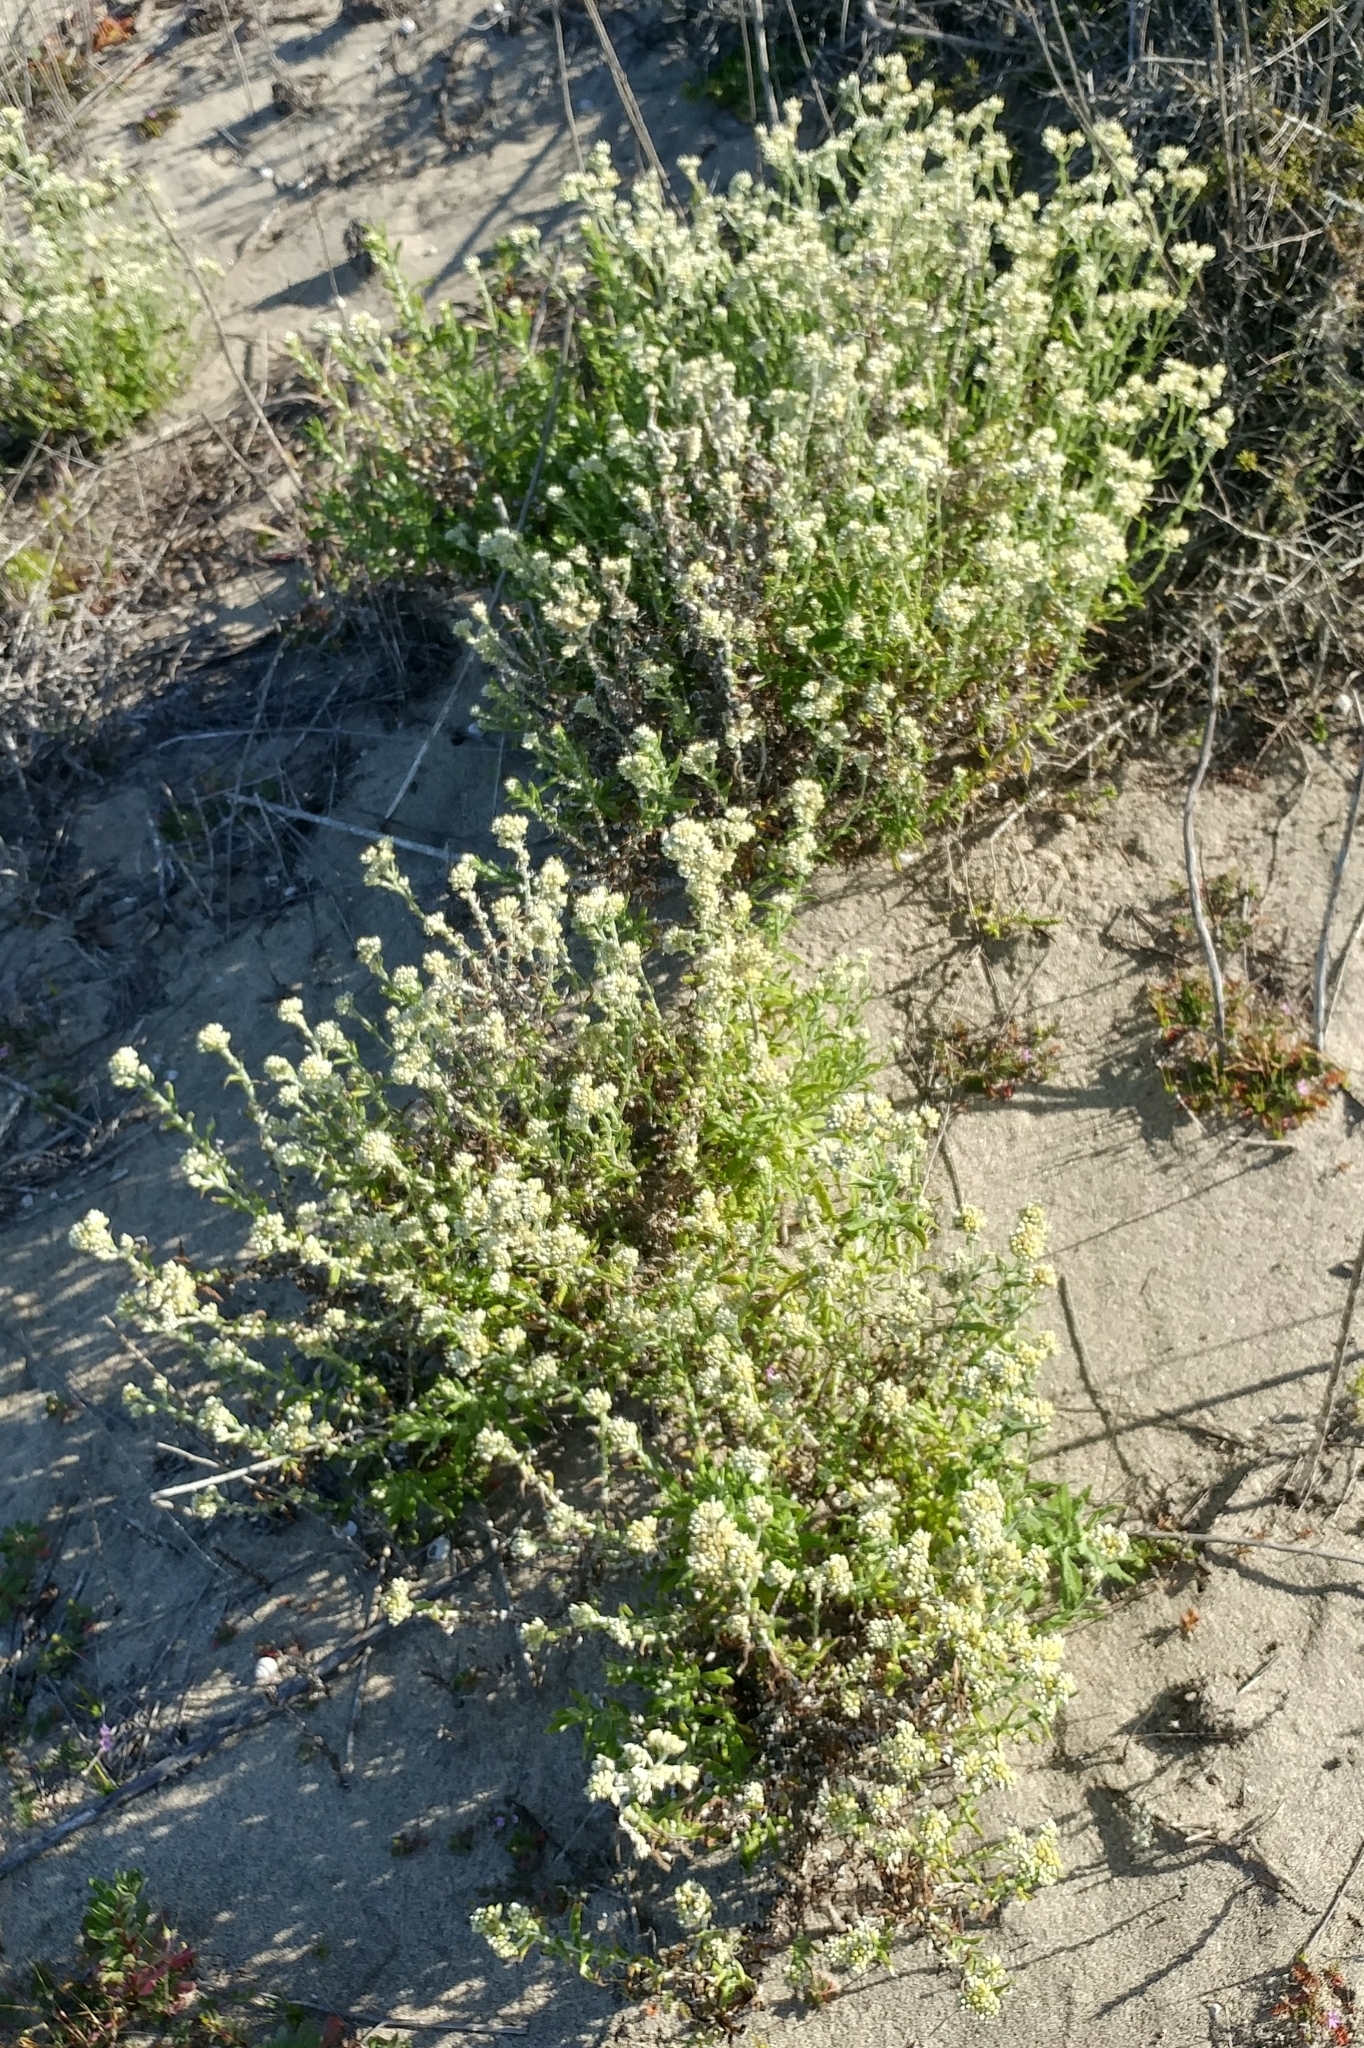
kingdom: Plantae
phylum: Tracheophyta
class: Magnoliopsida
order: Asterales
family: Asteraceae
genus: Pseudognaphalium
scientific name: Pseudognaphalium biolettii
